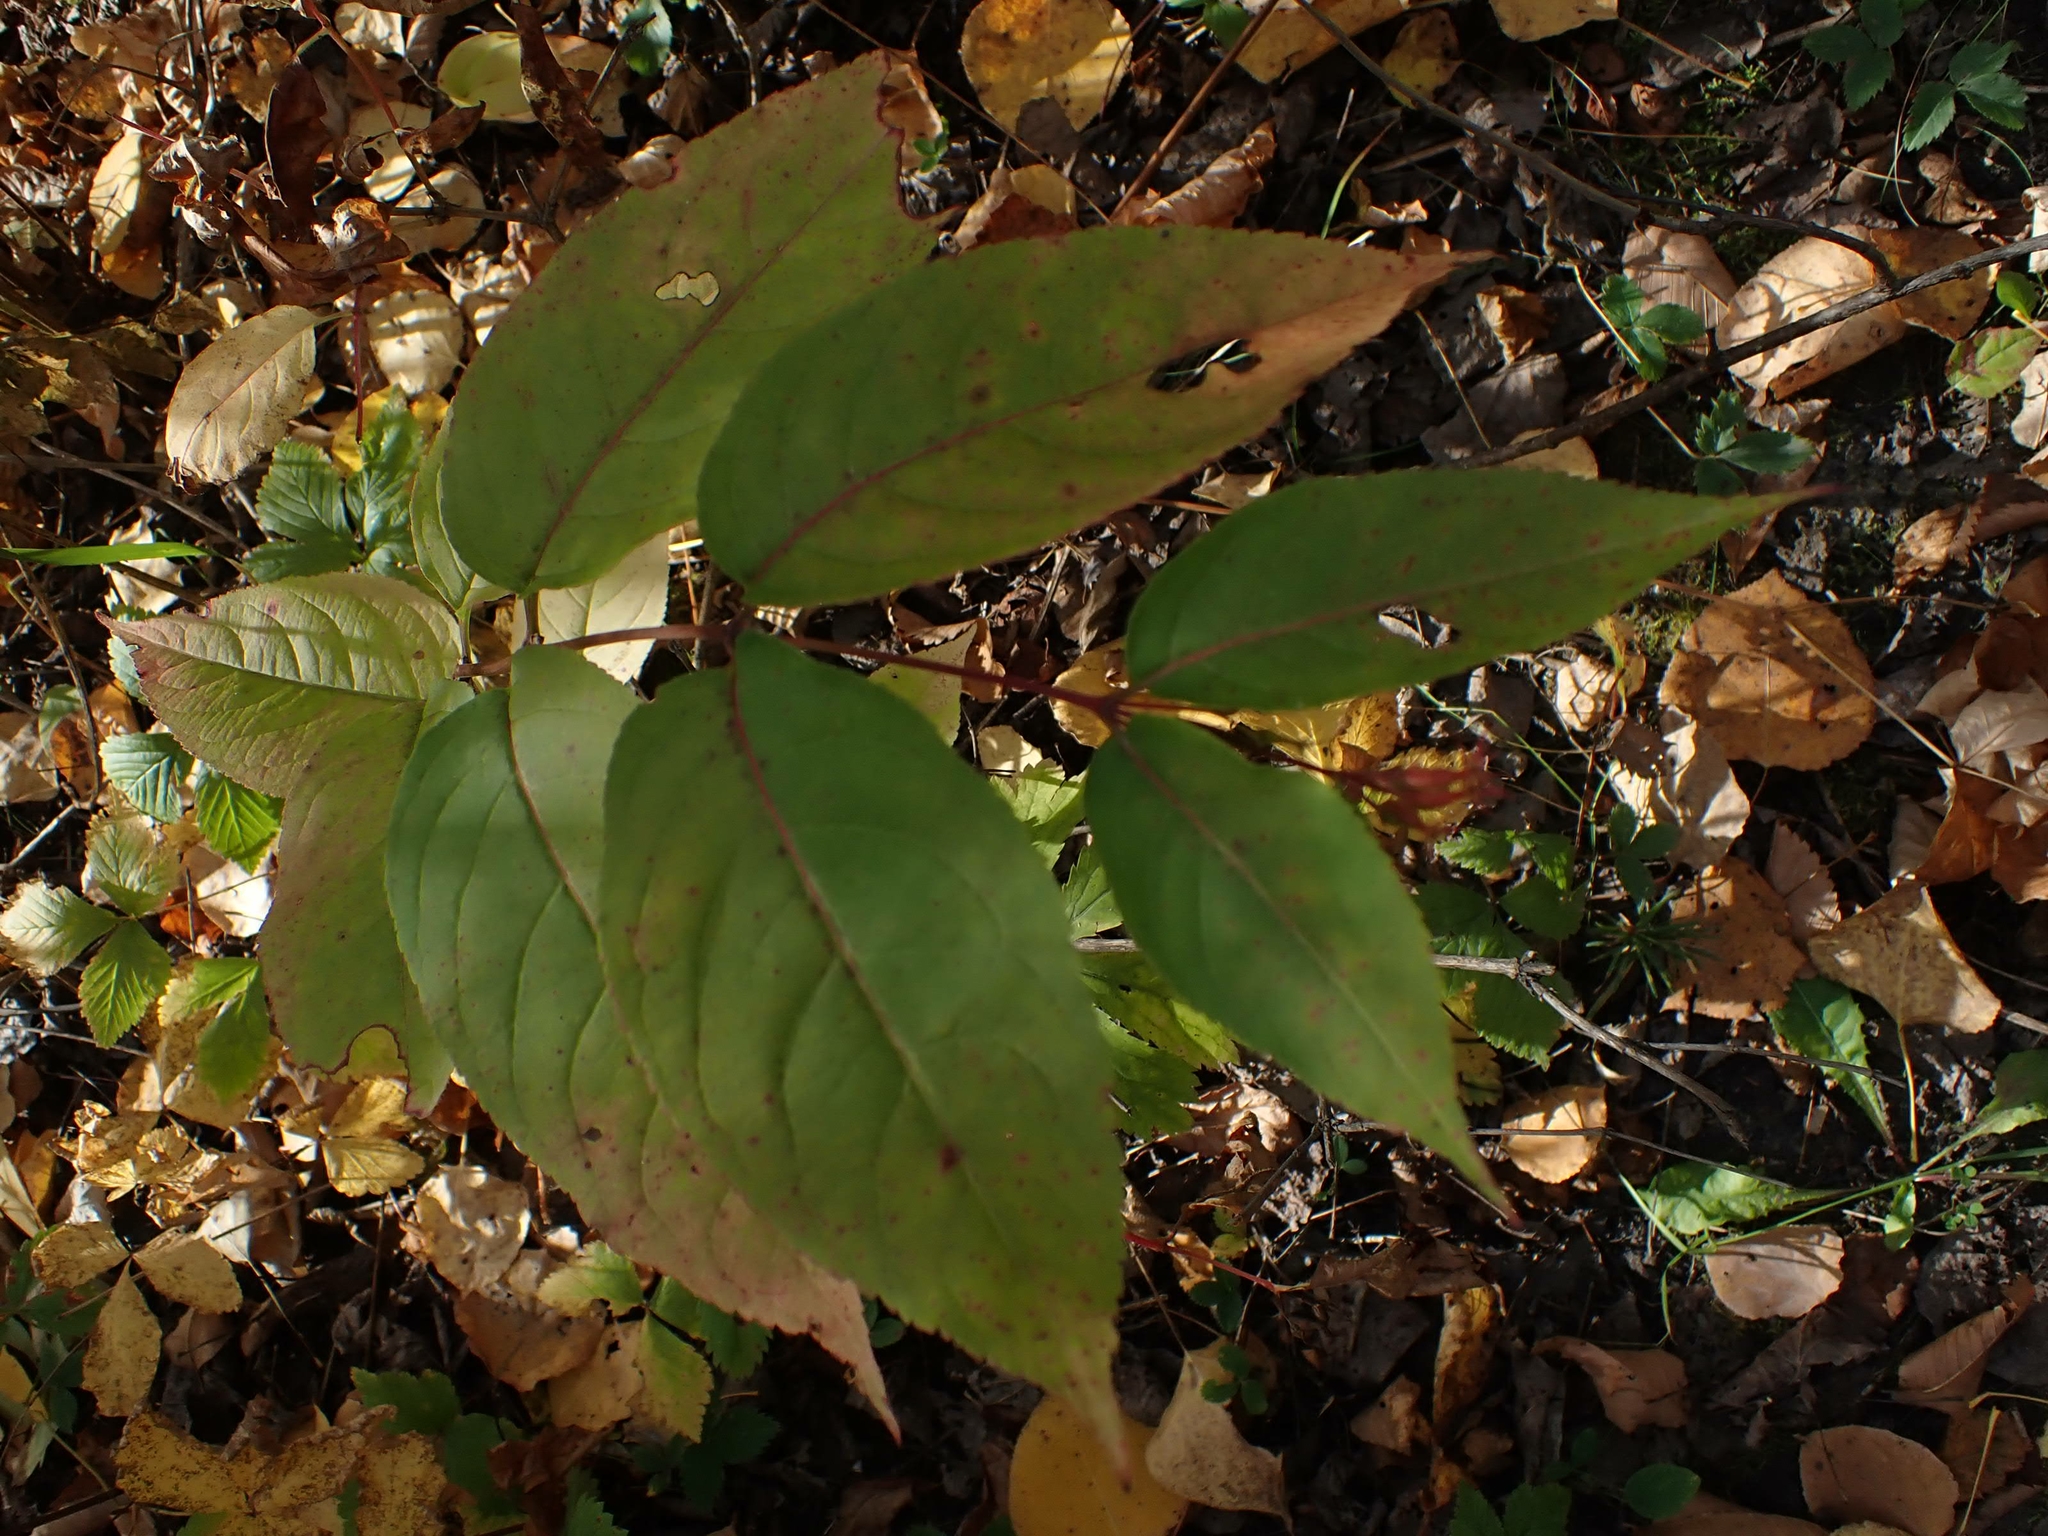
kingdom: Plantae
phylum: Tracheophyta
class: Magnoliopsida
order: Dipsacales
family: Caprifoliaceae
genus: Diervilla
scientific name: Diervilla lonicera
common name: Bush-honeysuckle
